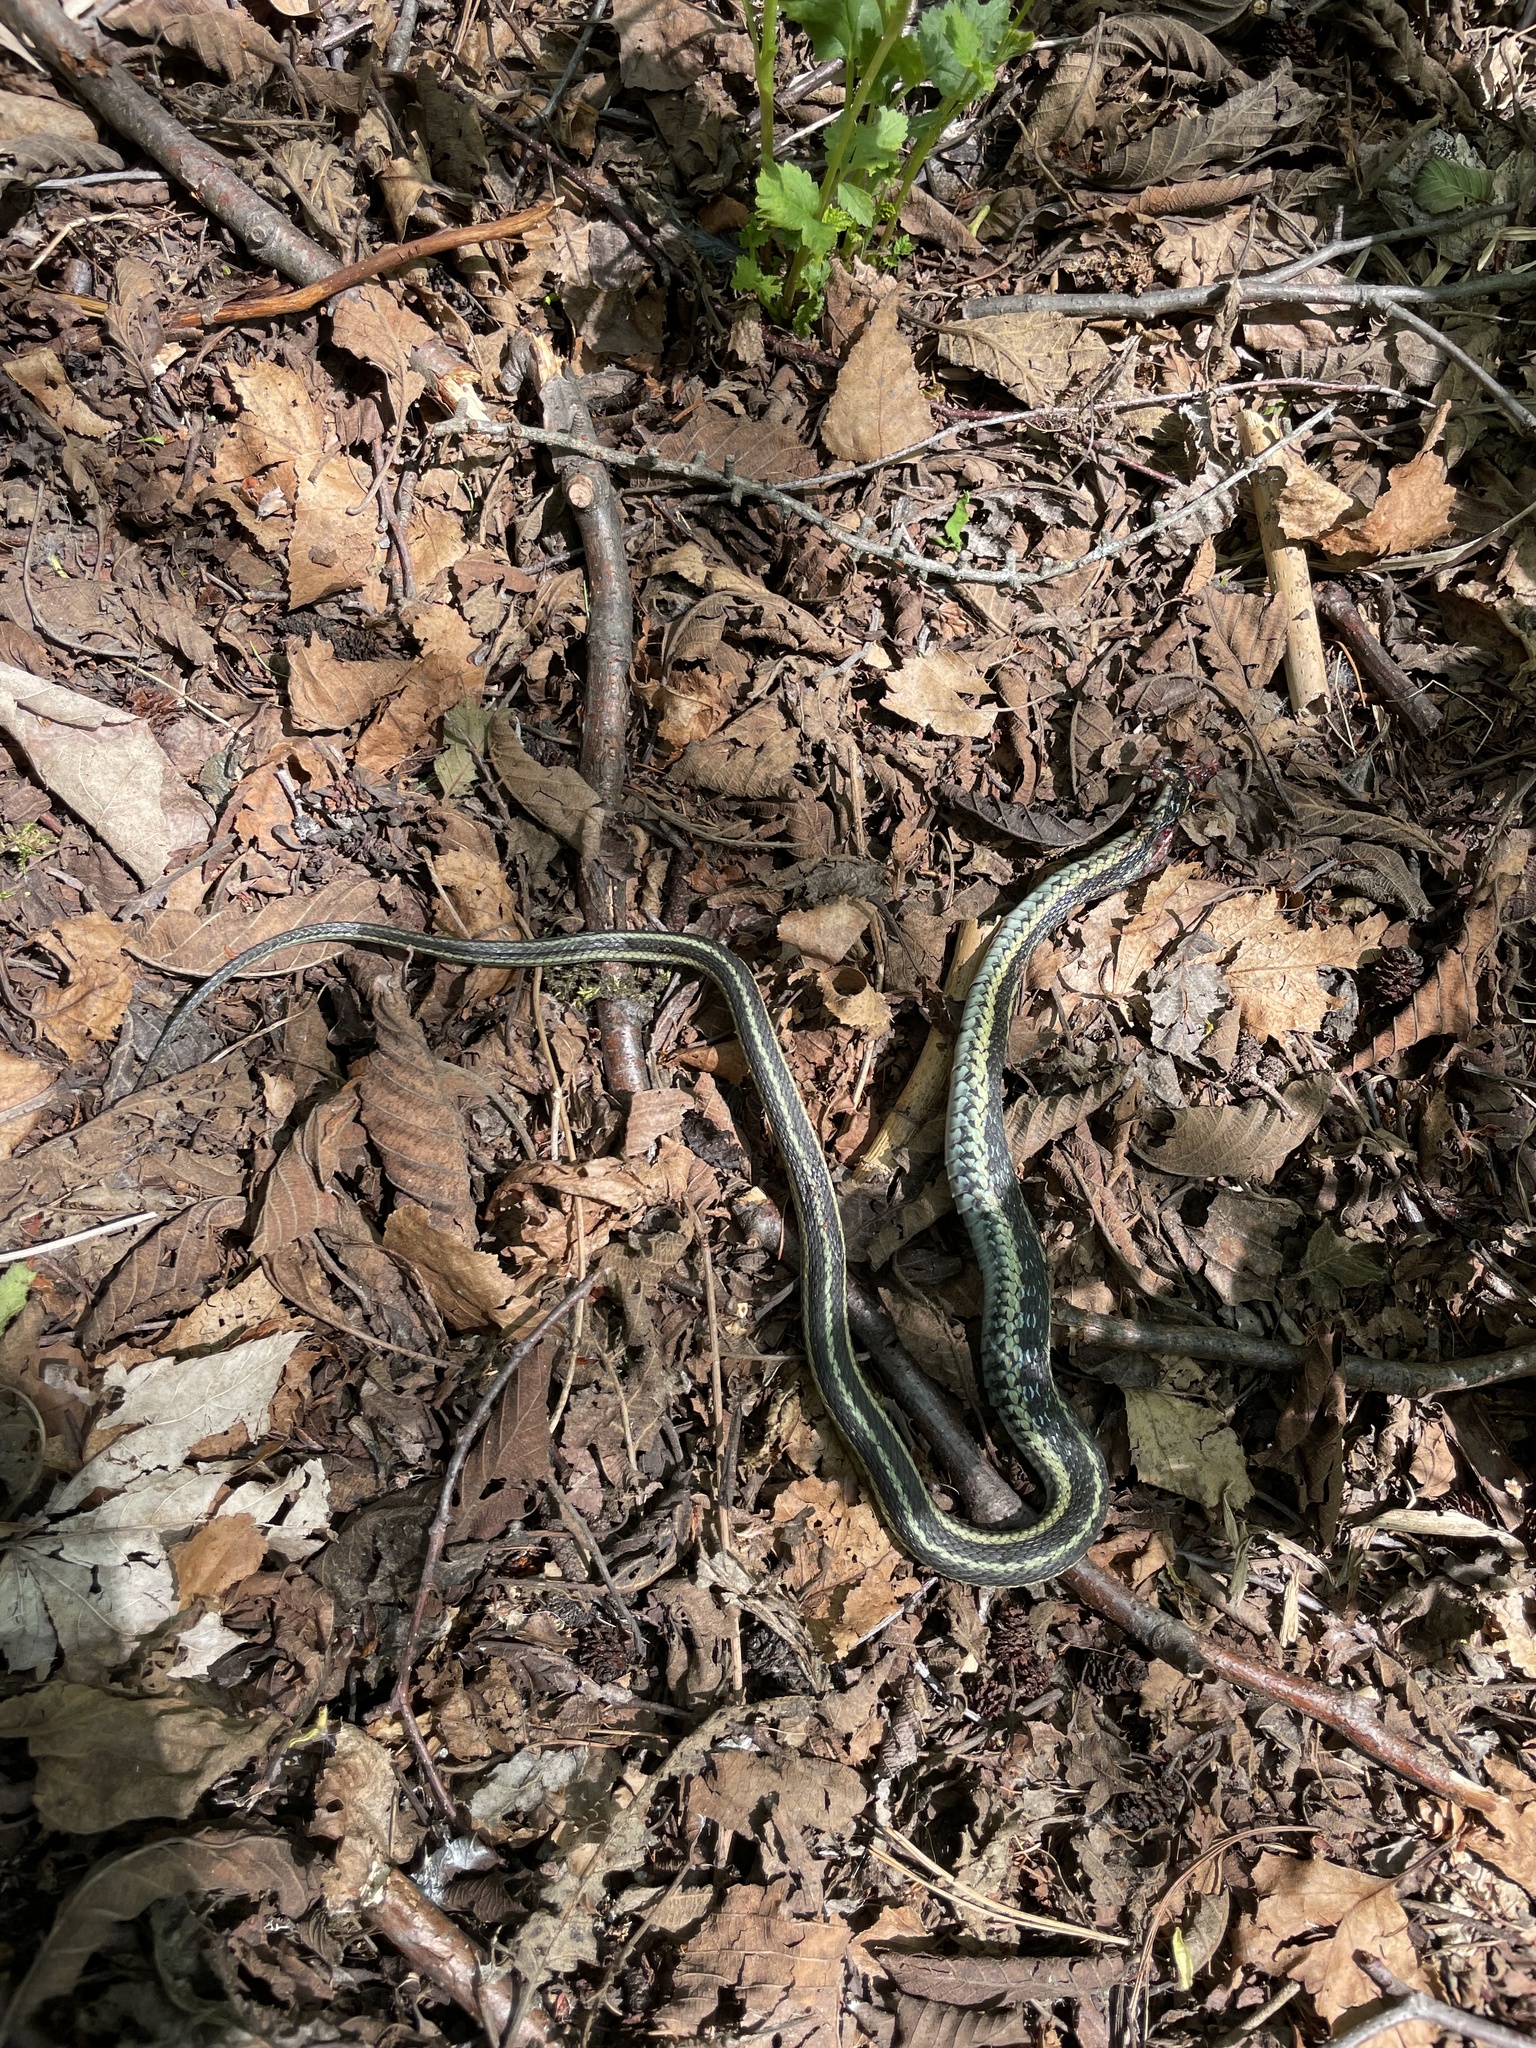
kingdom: Animalia
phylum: Chordata
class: Squamata
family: Colubridae
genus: Thamnophis
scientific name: Thamnophis sirtalis
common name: Common garter snake
